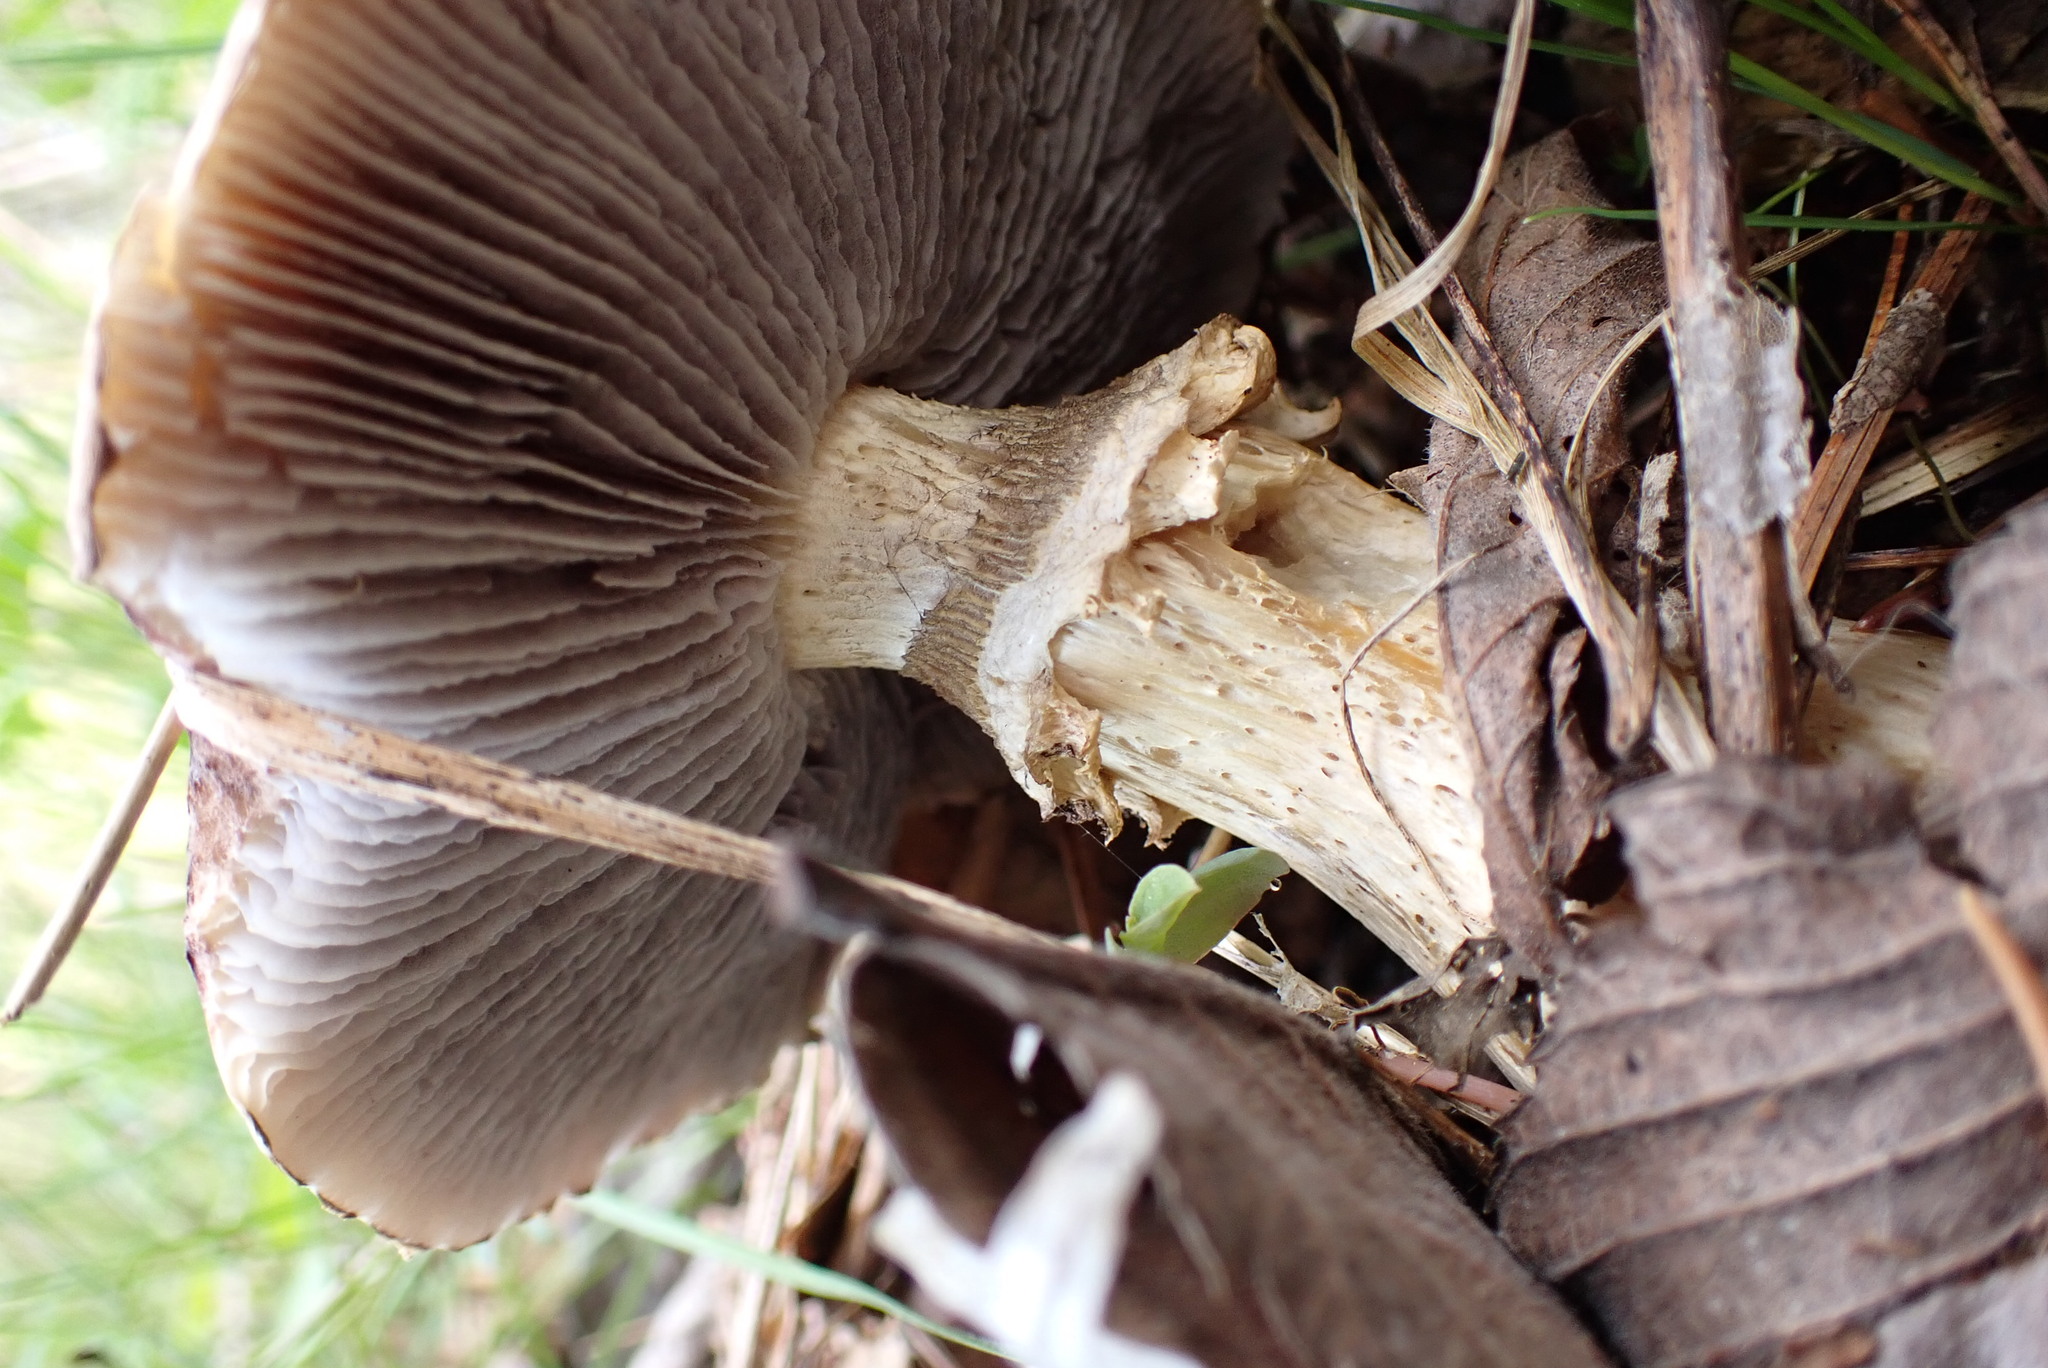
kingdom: Fungi
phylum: Basidiomycota
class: Agaricomycetes
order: Agaricales
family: Strophariaceae
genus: Stropharia
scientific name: Stropharia rugosoannulata
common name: Wine roundhead
